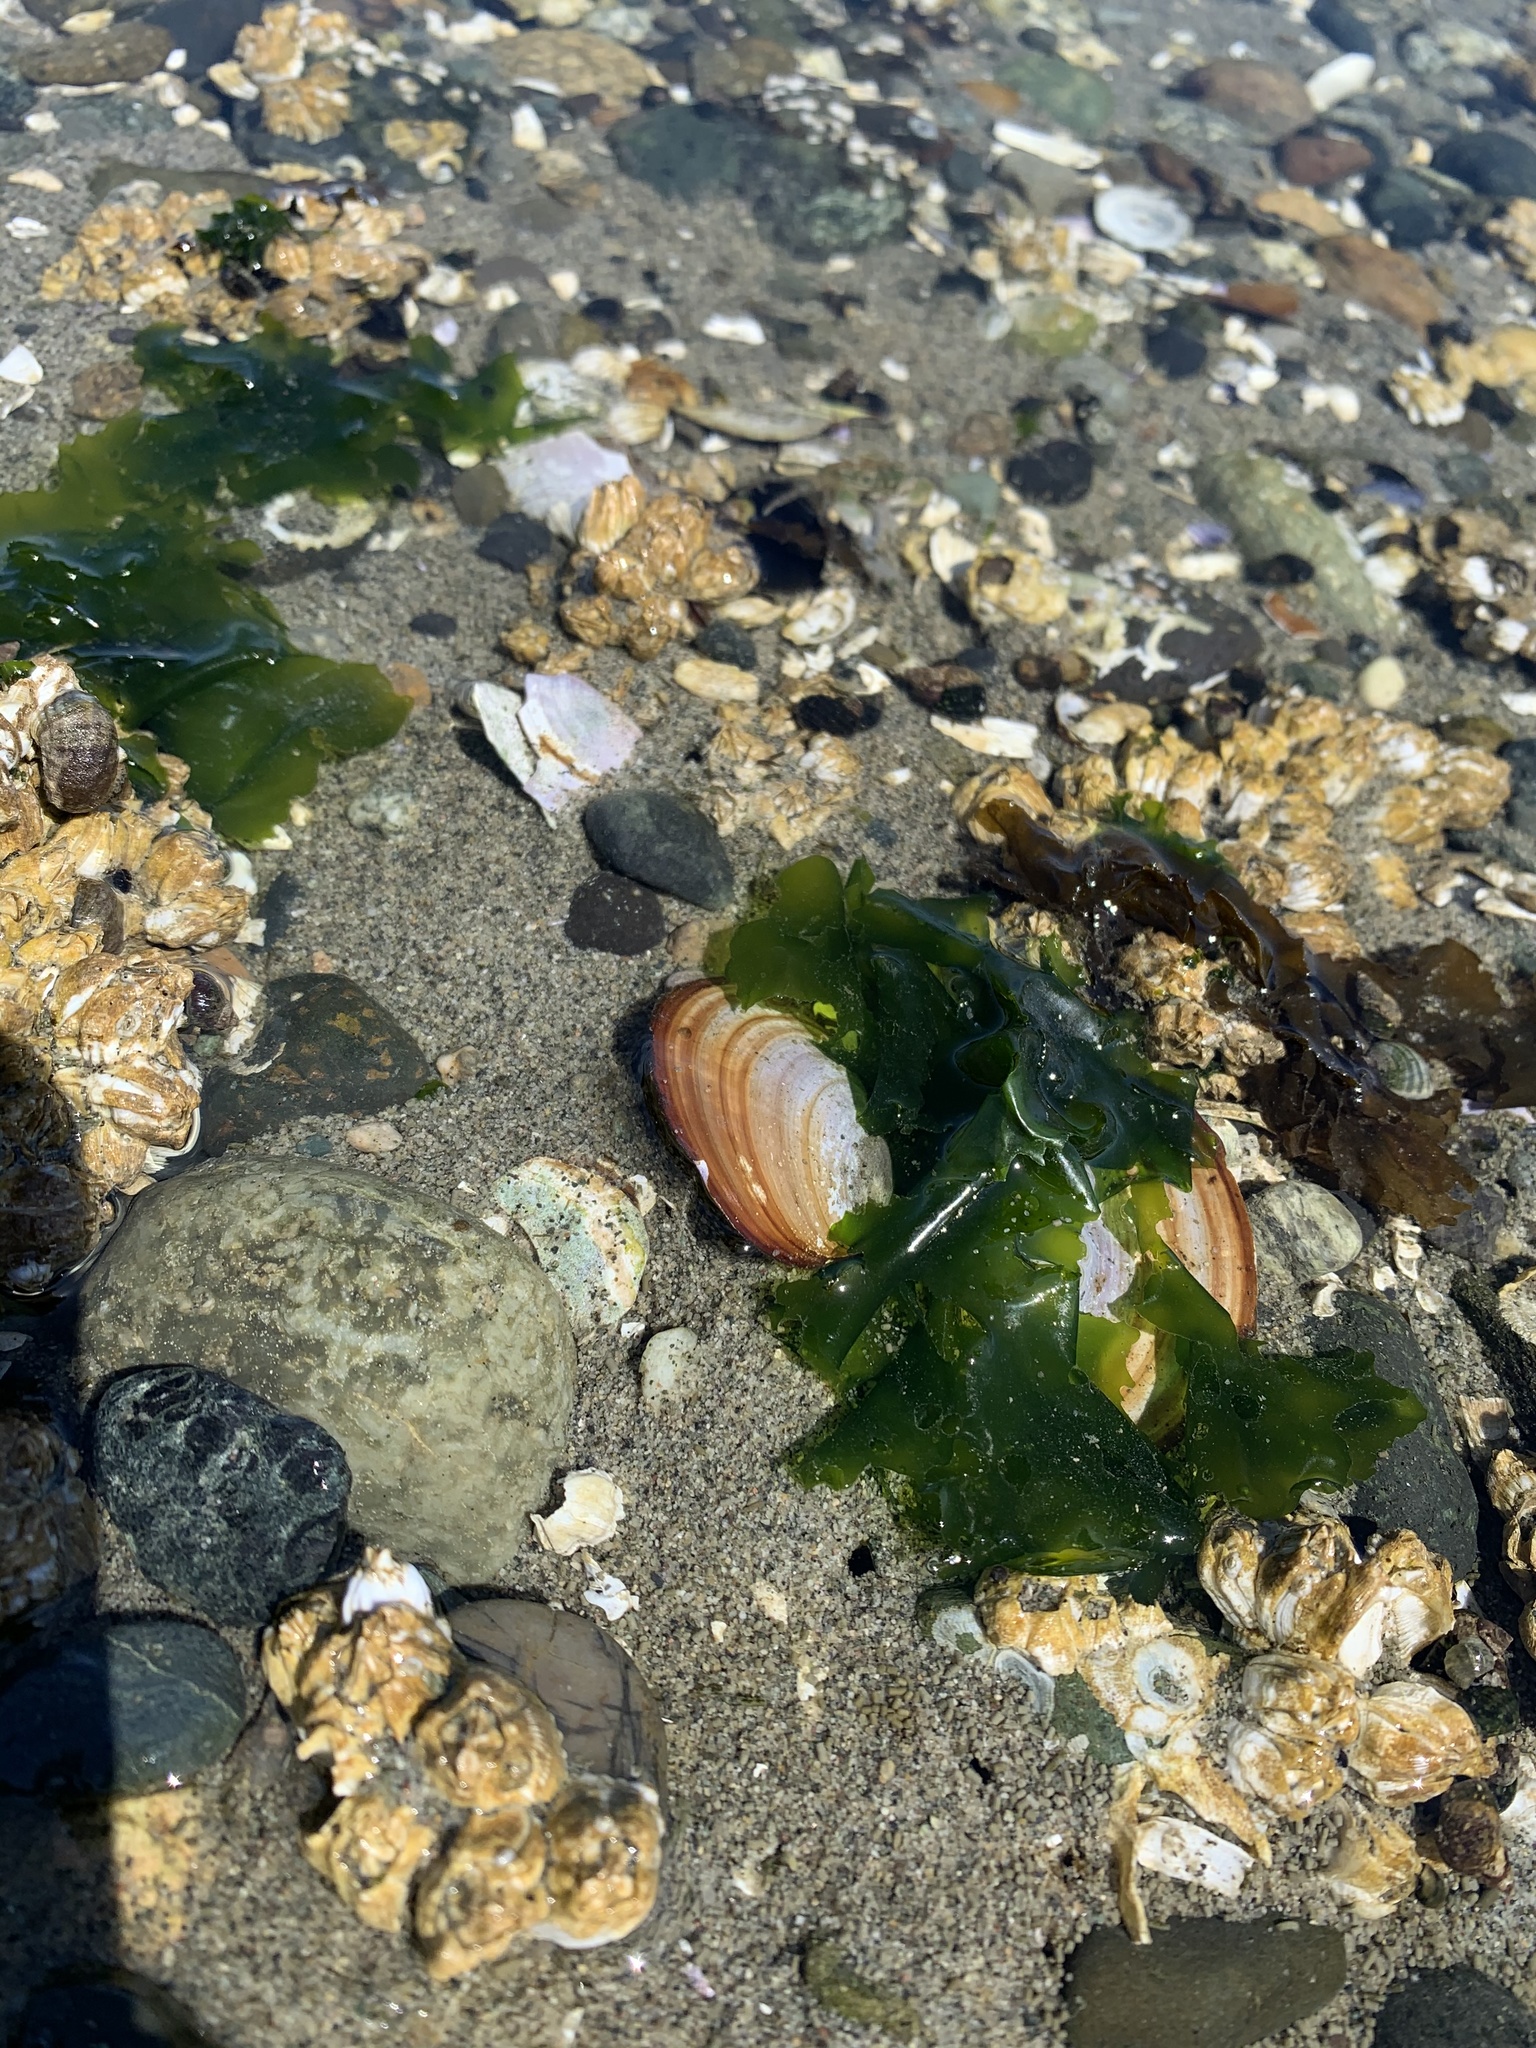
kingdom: Animalia
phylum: Mollusca
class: Bivalvia
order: Cardiida
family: Psammobiidae
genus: Nuttallia
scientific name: Nuttallia obscurata
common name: Purple mahogany-clam
